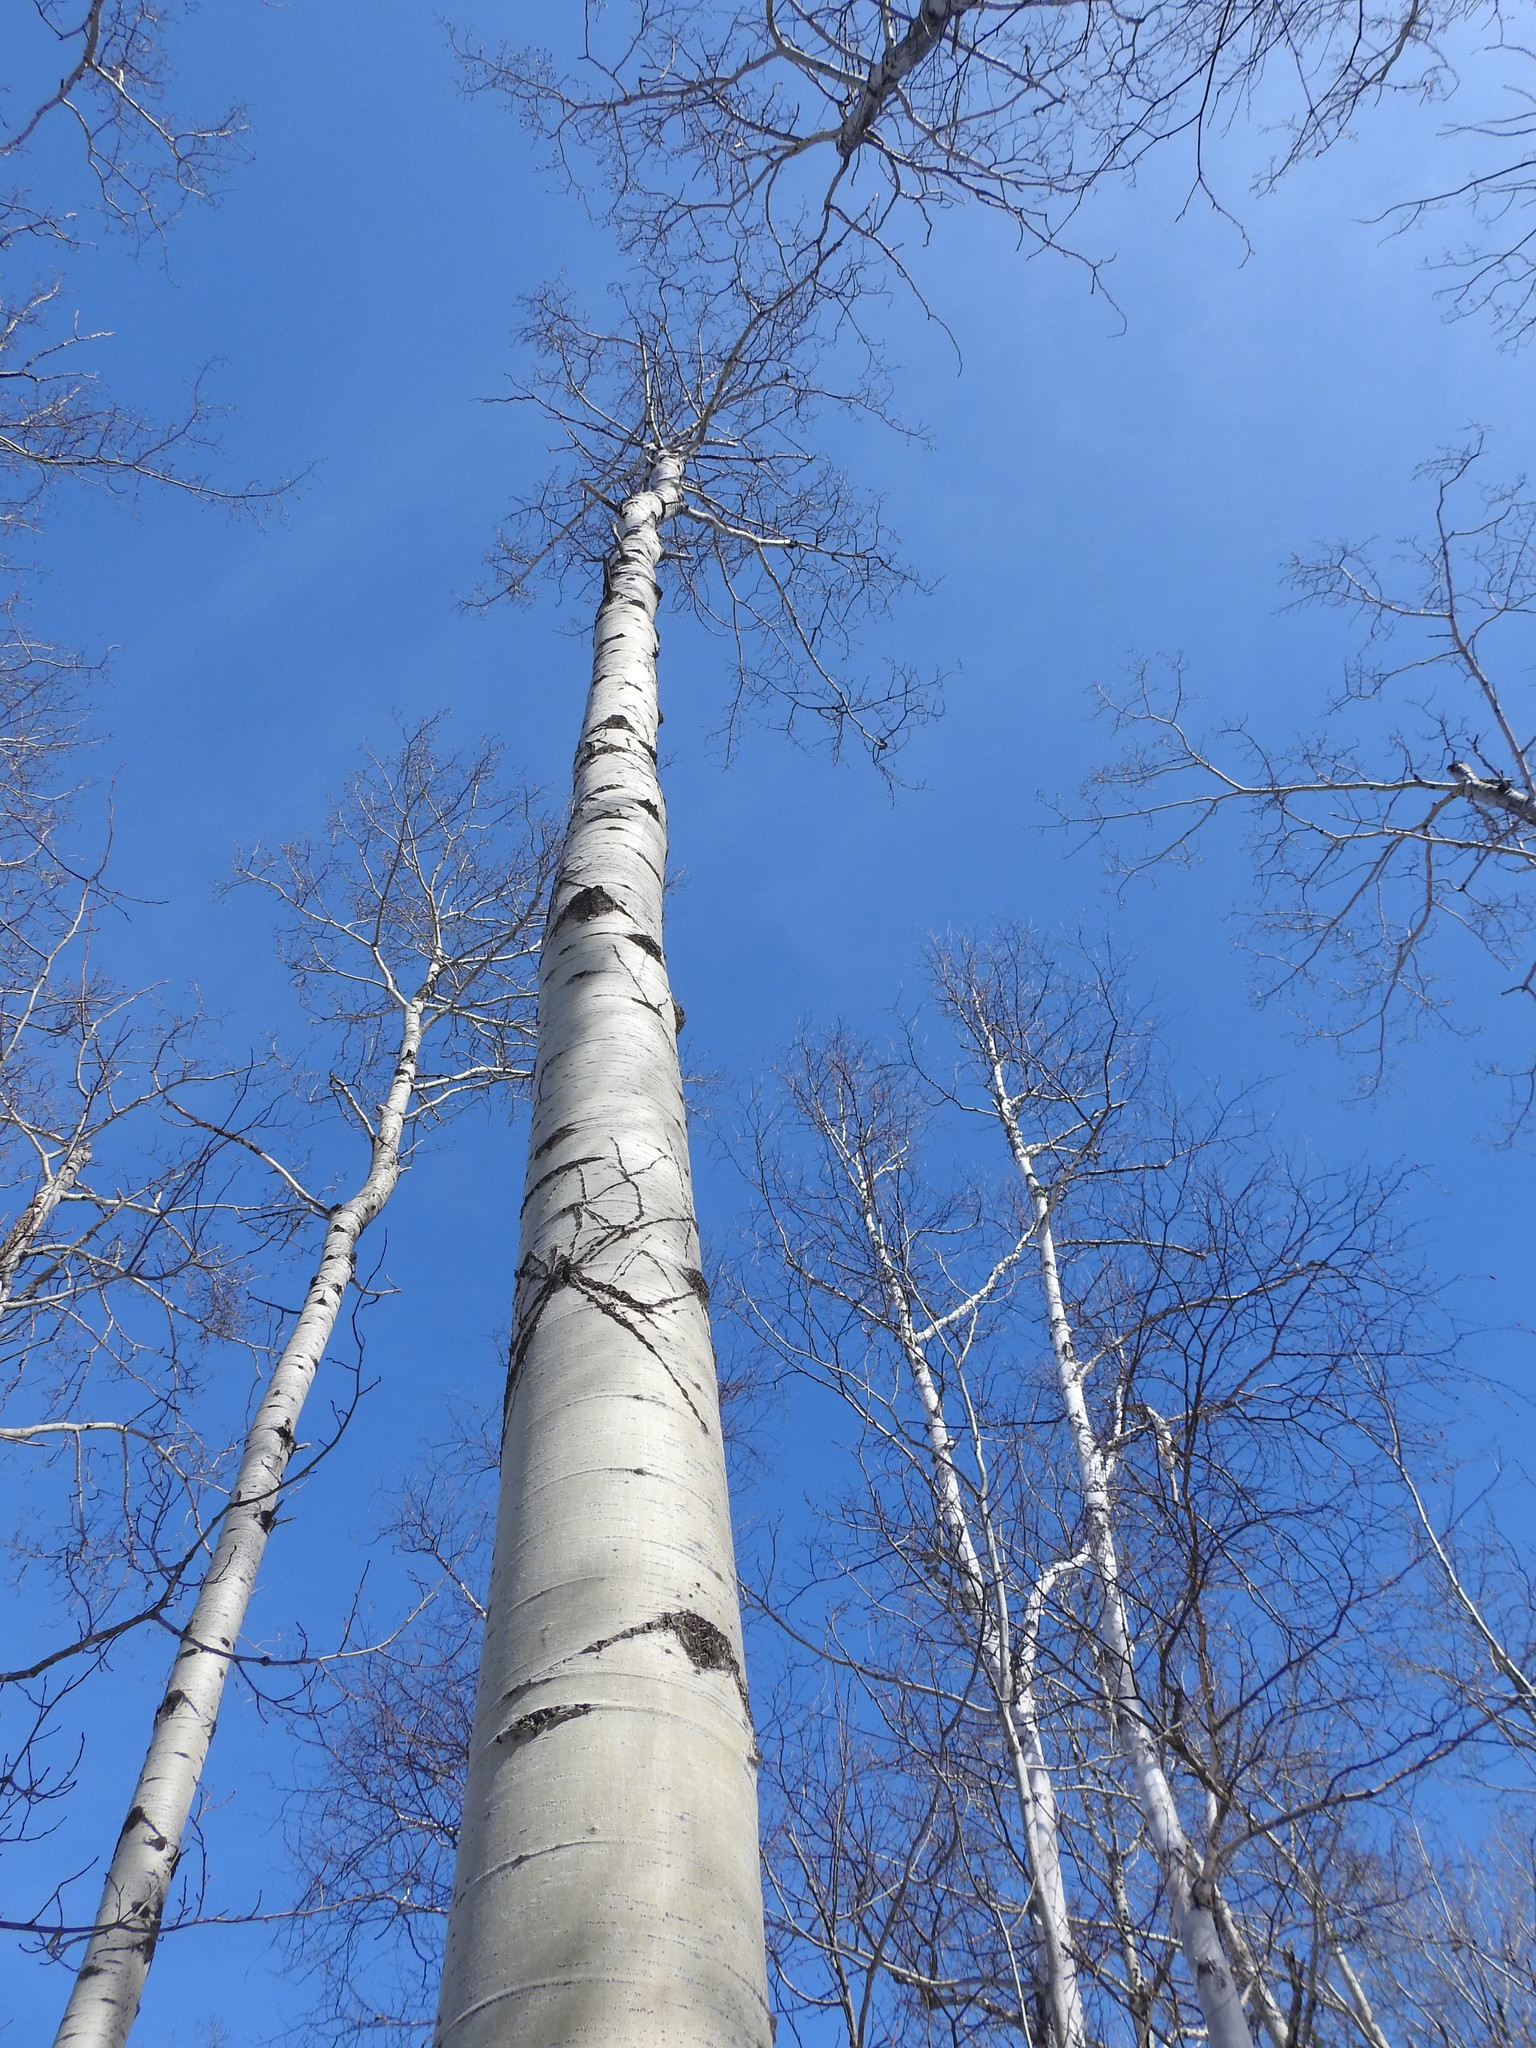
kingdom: Plantae
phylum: Tracheophyta
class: Magnoliopsida
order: Malpighiales
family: Salicaceae
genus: Populus
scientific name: Populus tremuloides
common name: Quaking aspen
